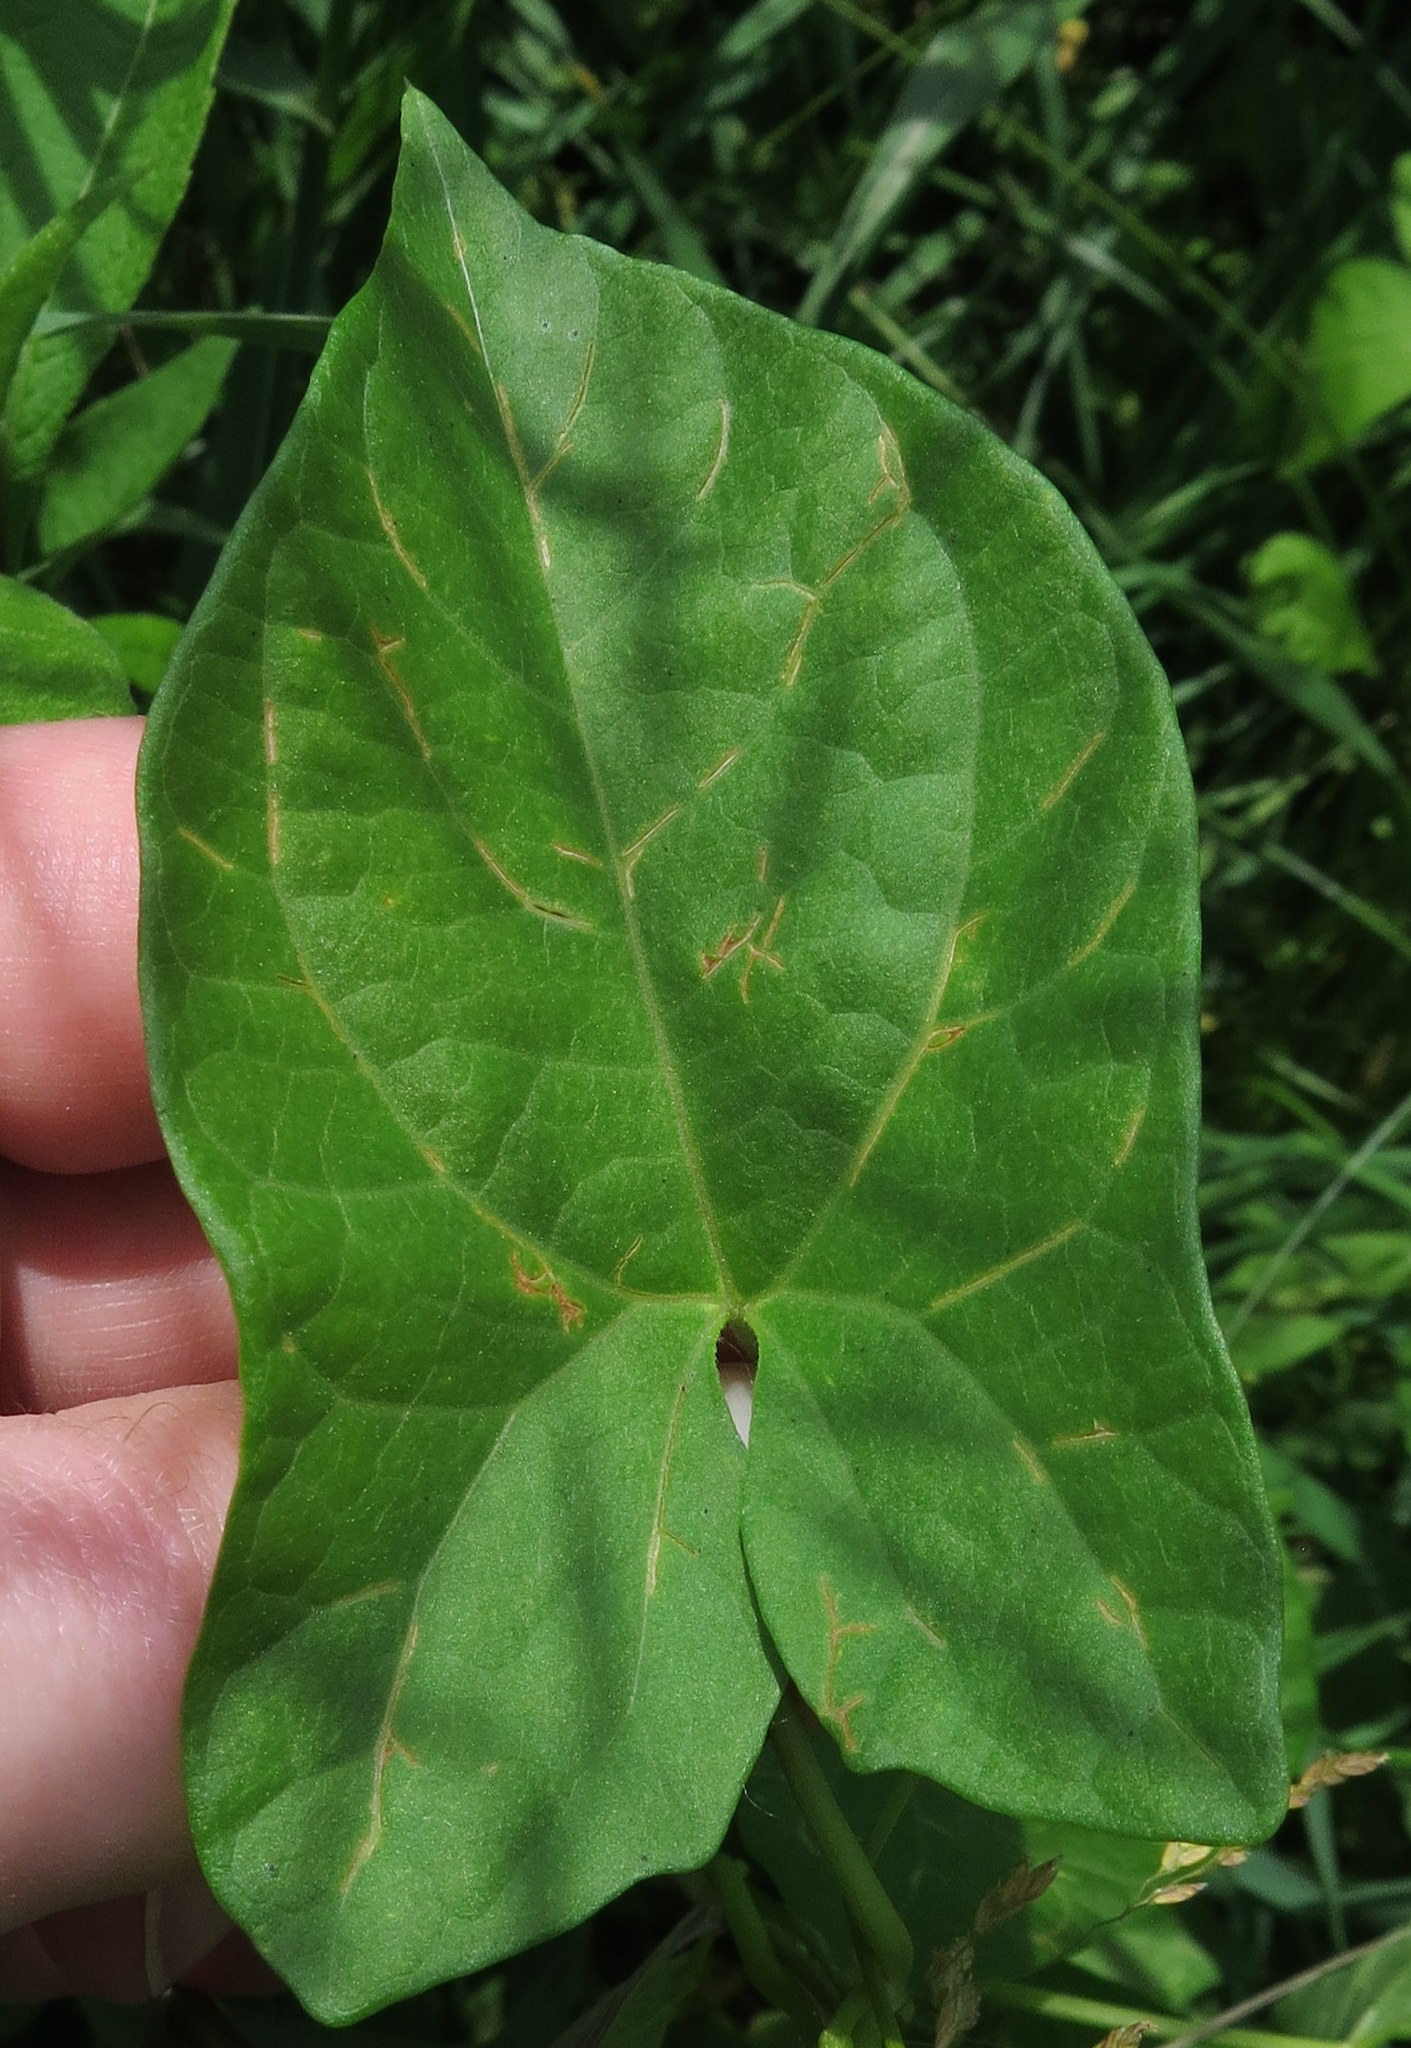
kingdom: Plantae
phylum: Tracheophyta
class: Magnoliopsida
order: Solanales
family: Convolvulaceae
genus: Calystegia
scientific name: Calystegia sepium
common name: Hedge bindweed
